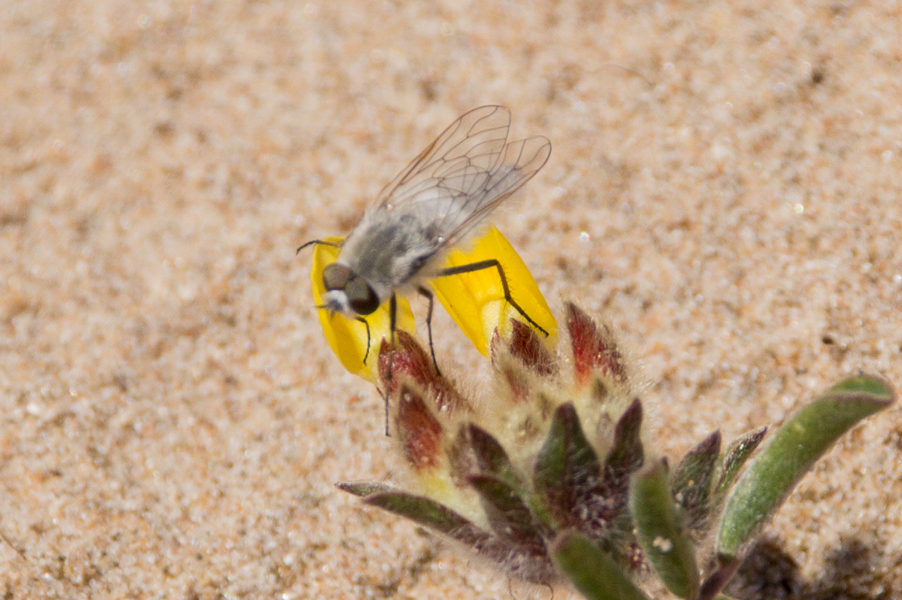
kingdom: Animalia
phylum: Arthropoda
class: Insecta
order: Diptera
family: Therevidae
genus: Acrosathe
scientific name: Acrosathe annulata
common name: Coastal silver-stiletto
